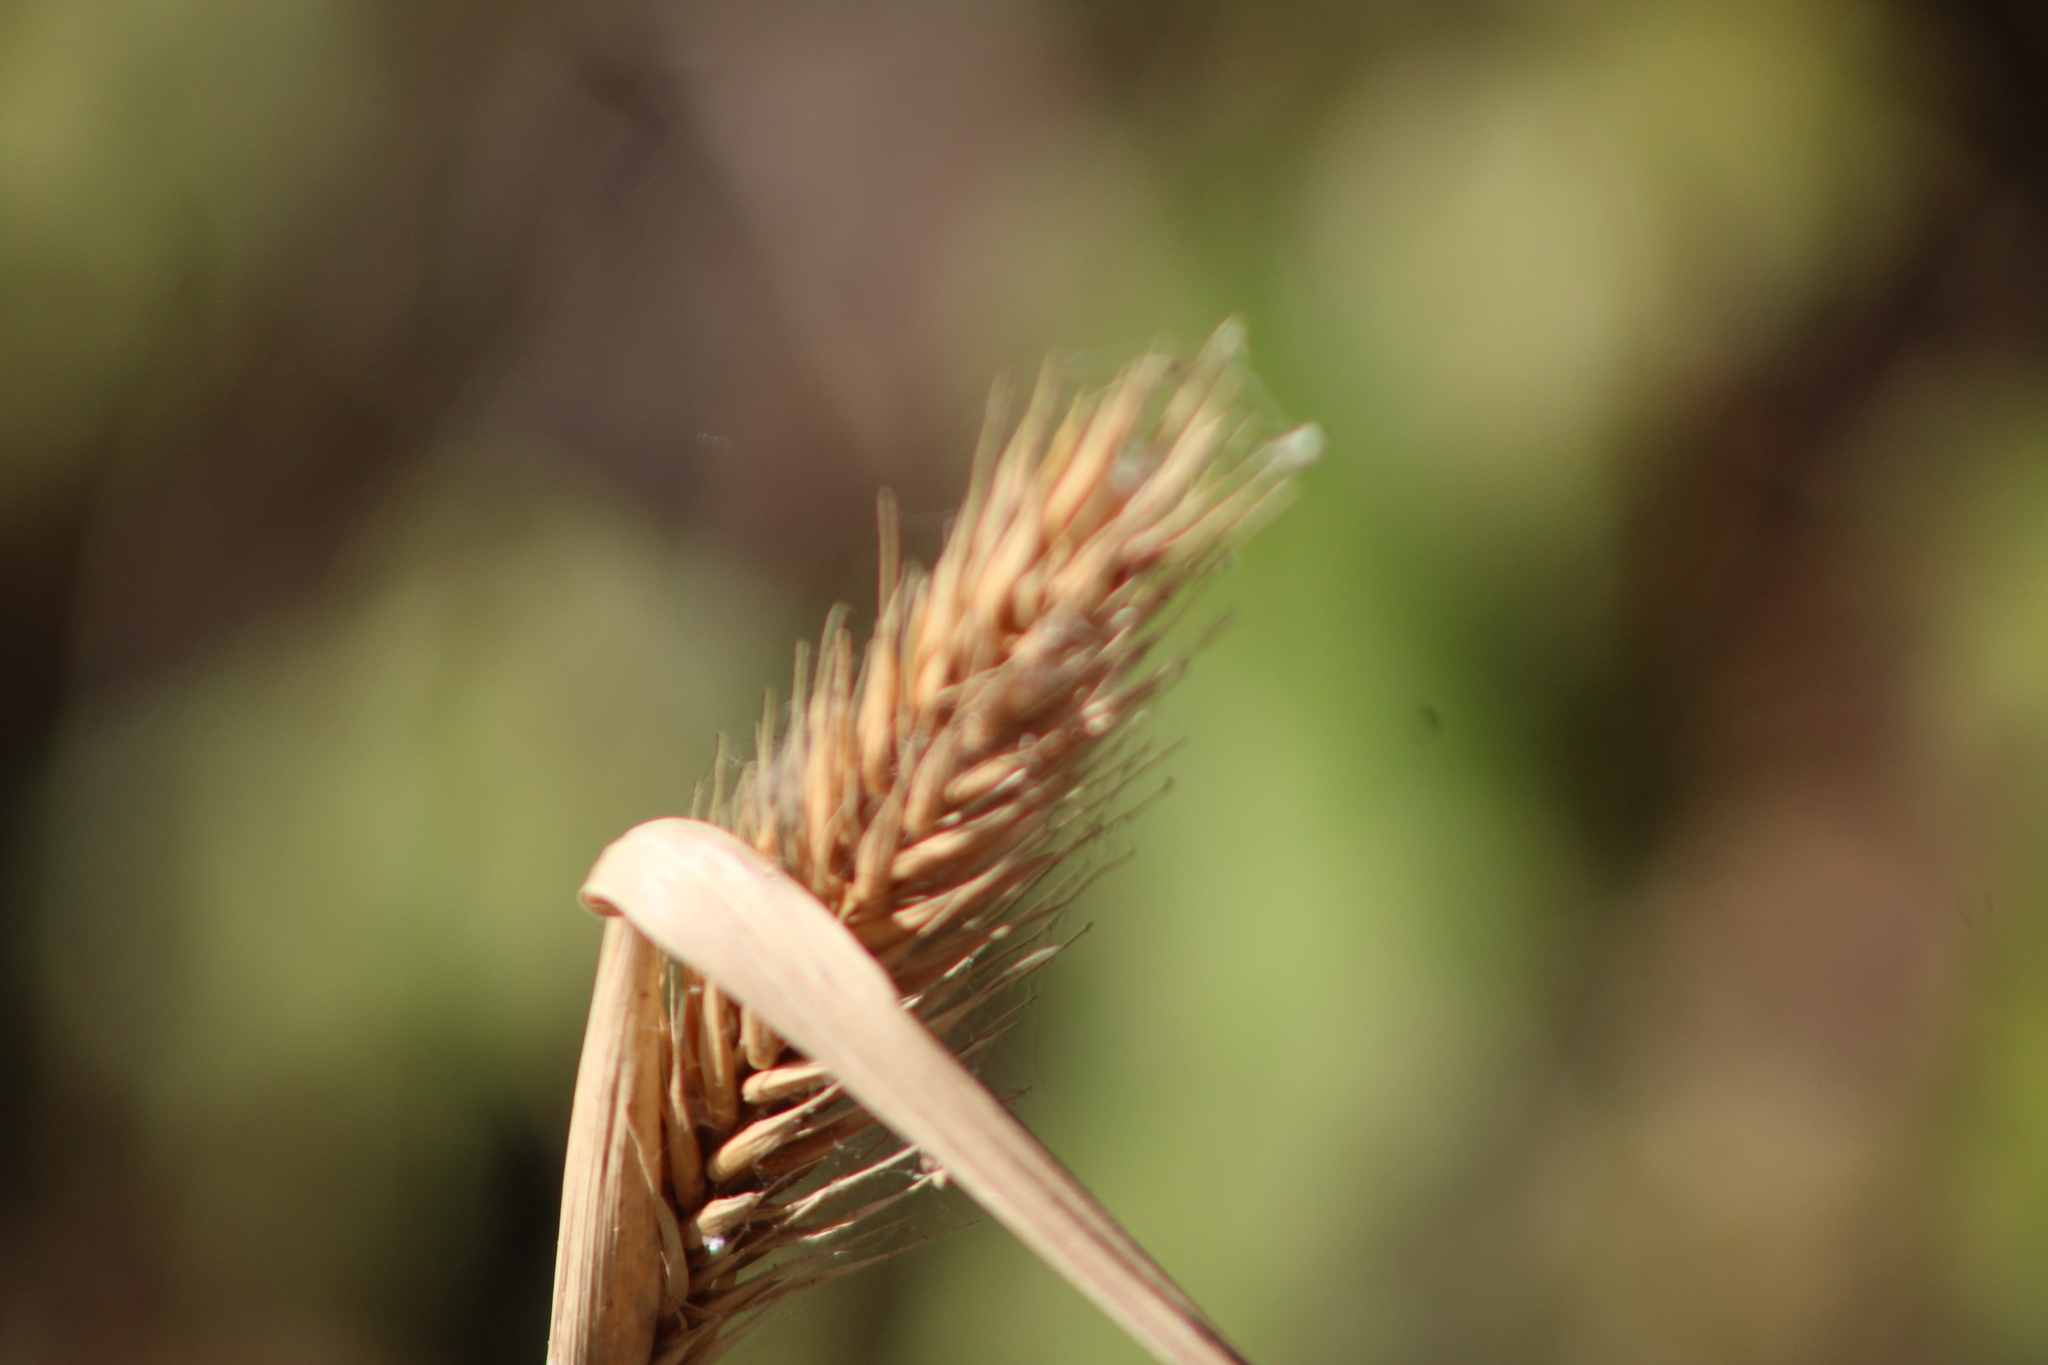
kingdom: Plantae
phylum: Tracheophyta
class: Liliopsida
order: Poales
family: Poaceae
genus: Elymus
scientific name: Elymus virginicus
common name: Common eastern wildrye
